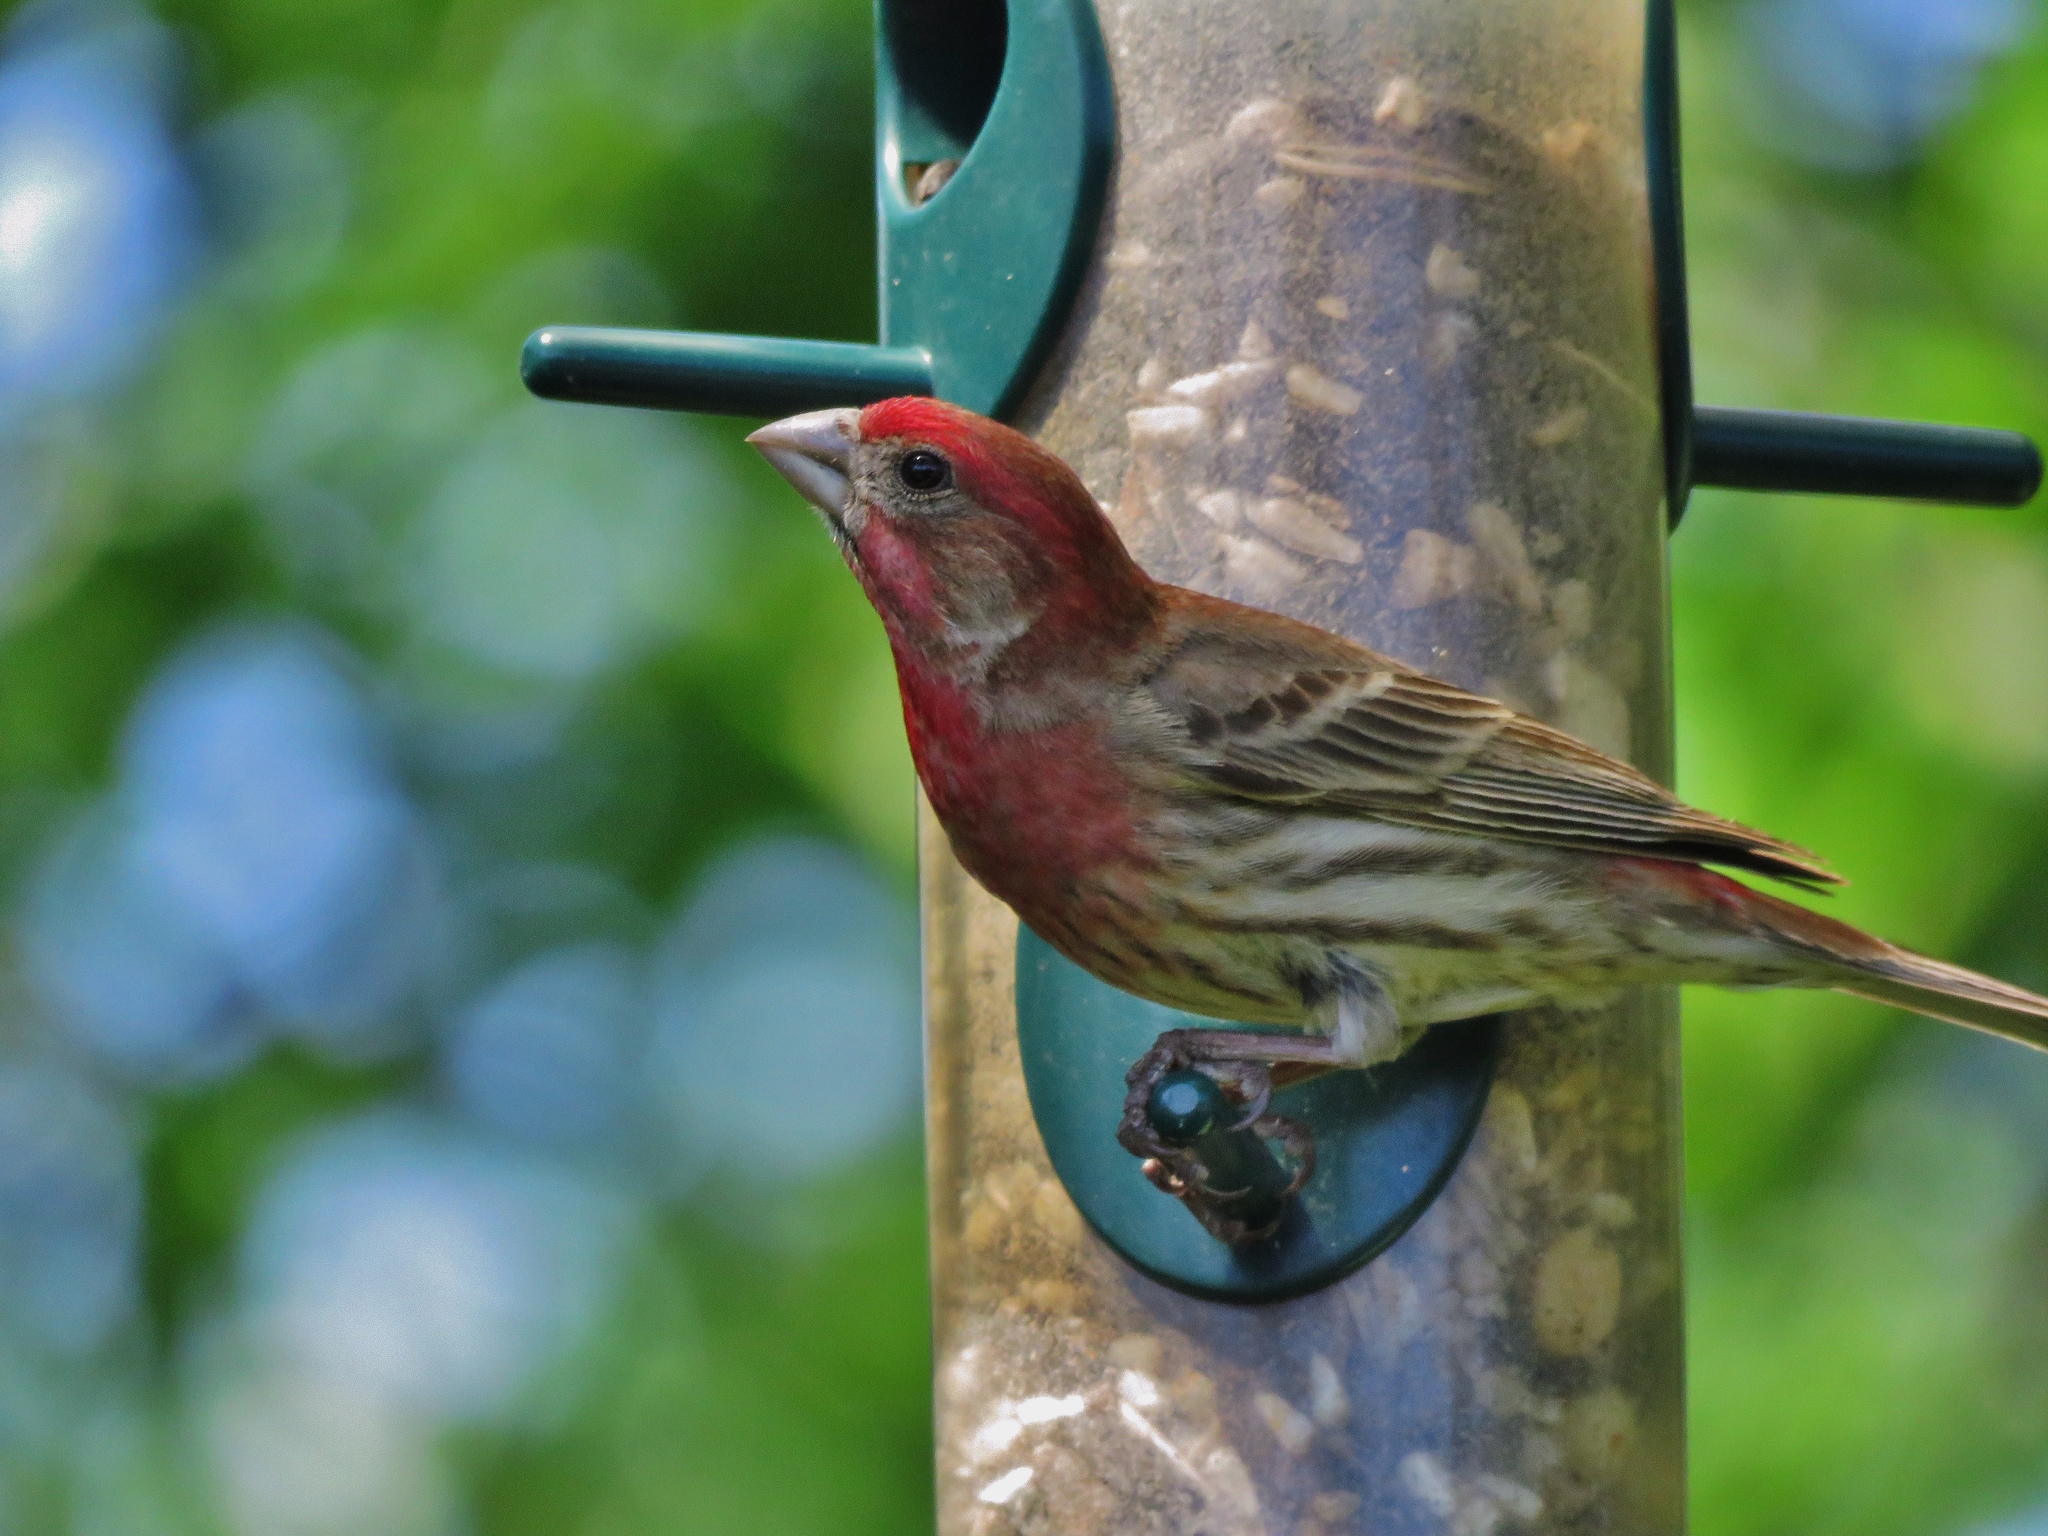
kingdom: Animalia
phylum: Chordata
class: Aves
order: Passeriformes
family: Fringillidae
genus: Haemorhous
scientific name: Haemorhous mexicanus
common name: House finch
